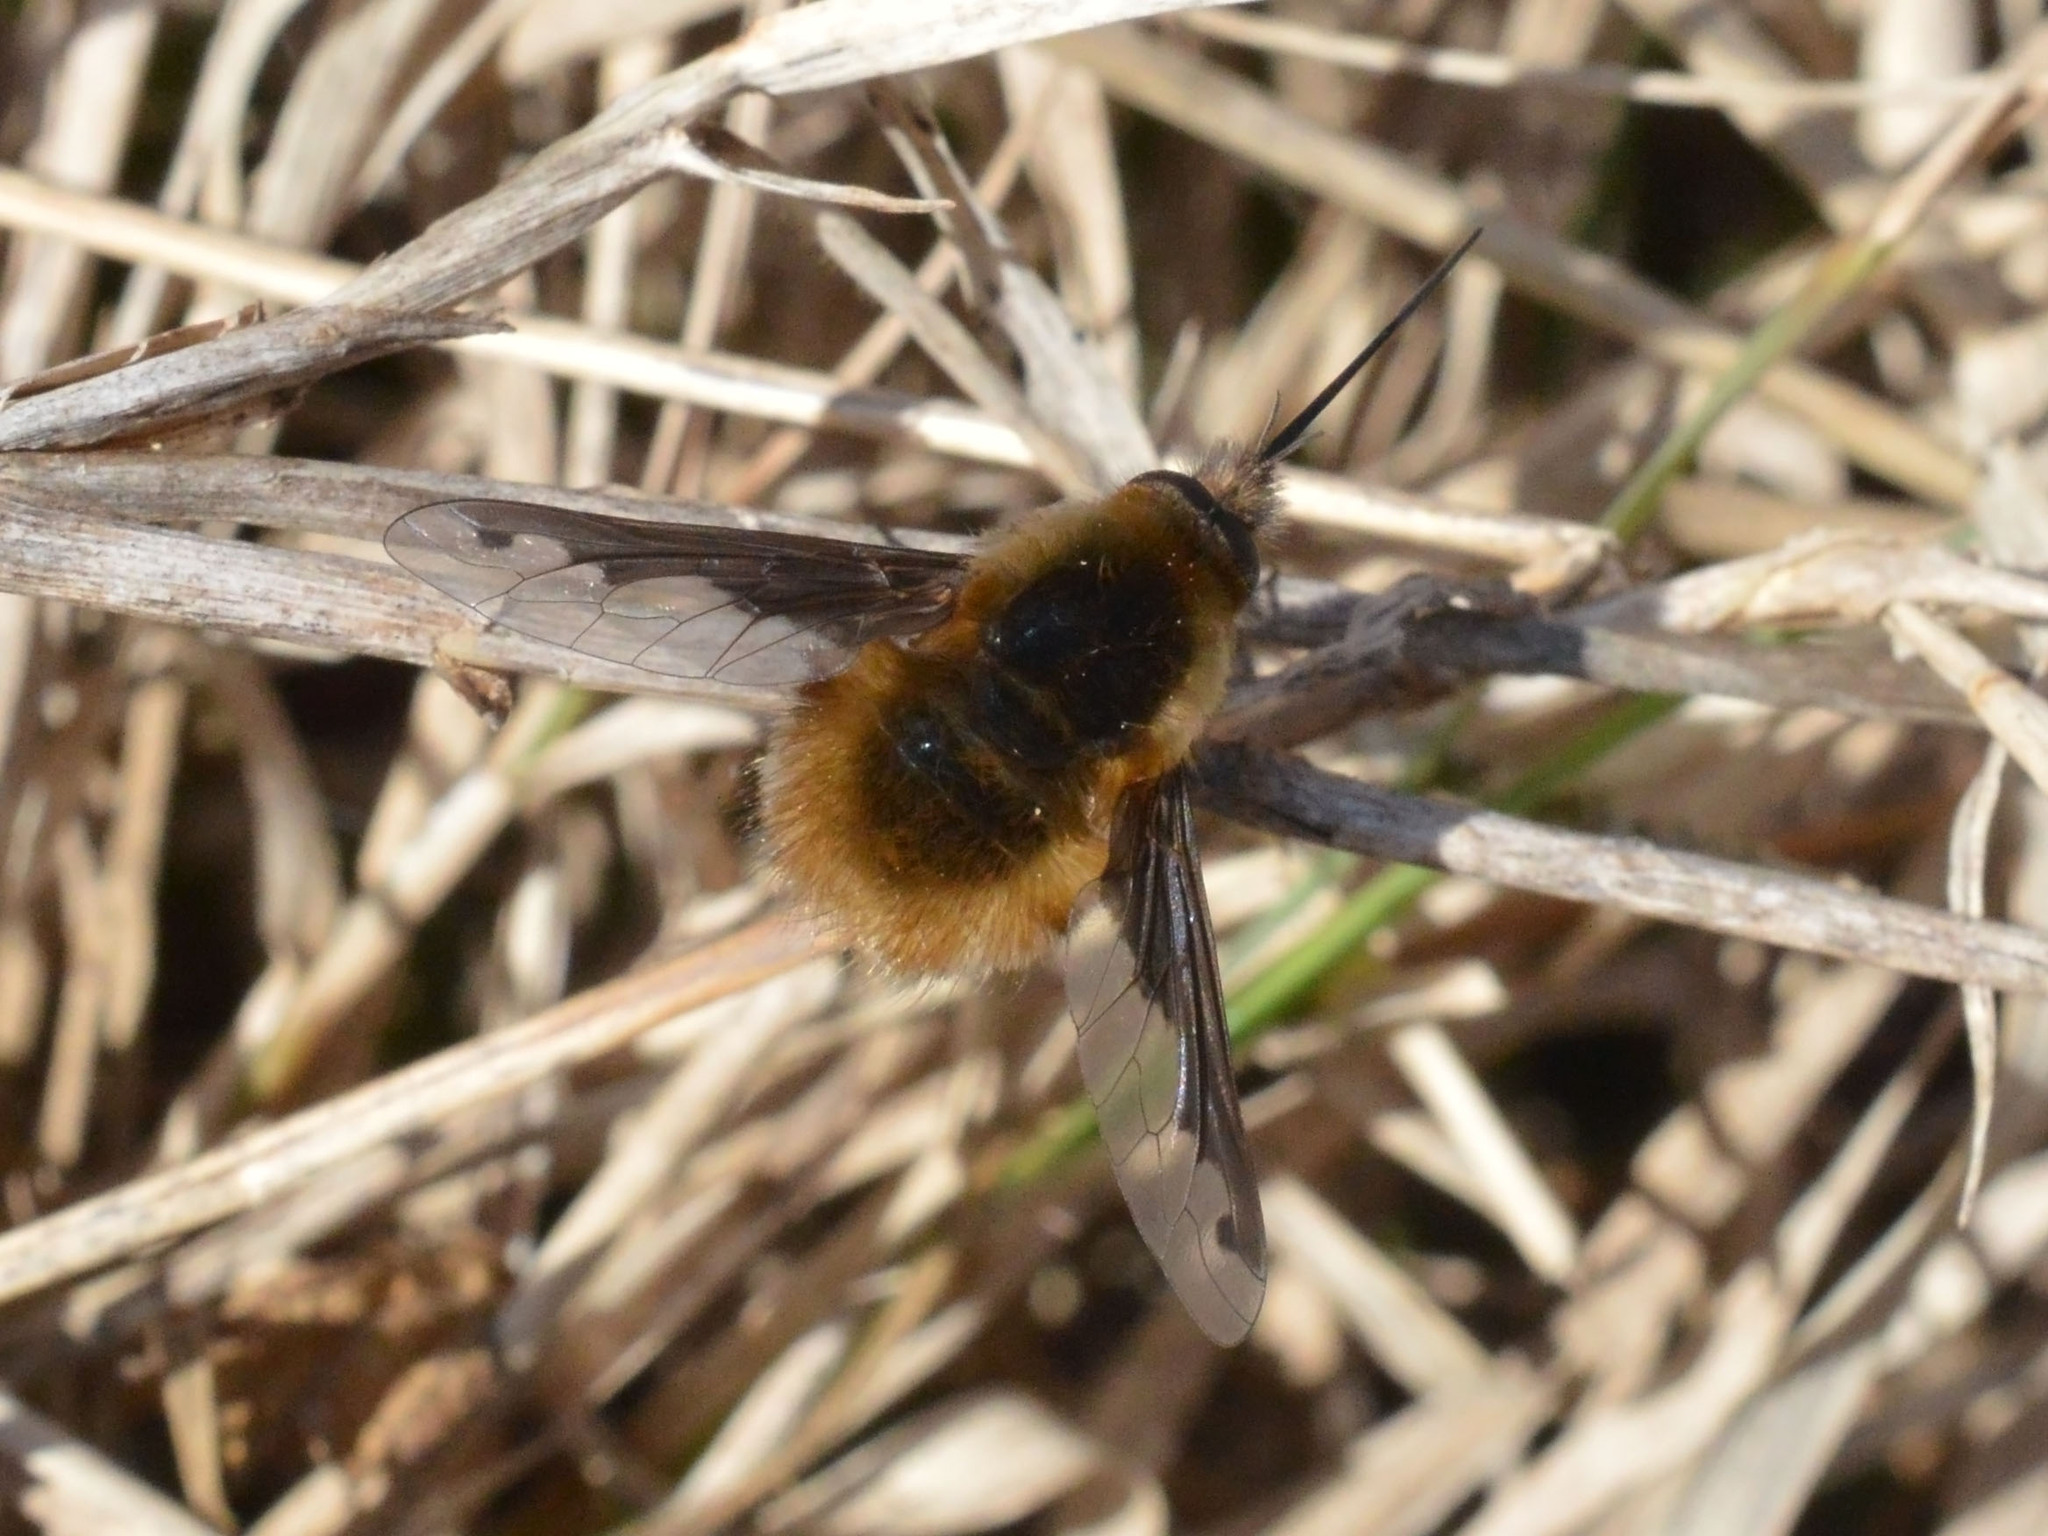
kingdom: Animalia
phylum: Arthropoda
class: Insecta
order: Diptera
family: Bombyliidae
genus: Bombylius
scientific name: Bombylius major
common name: Bee fly
